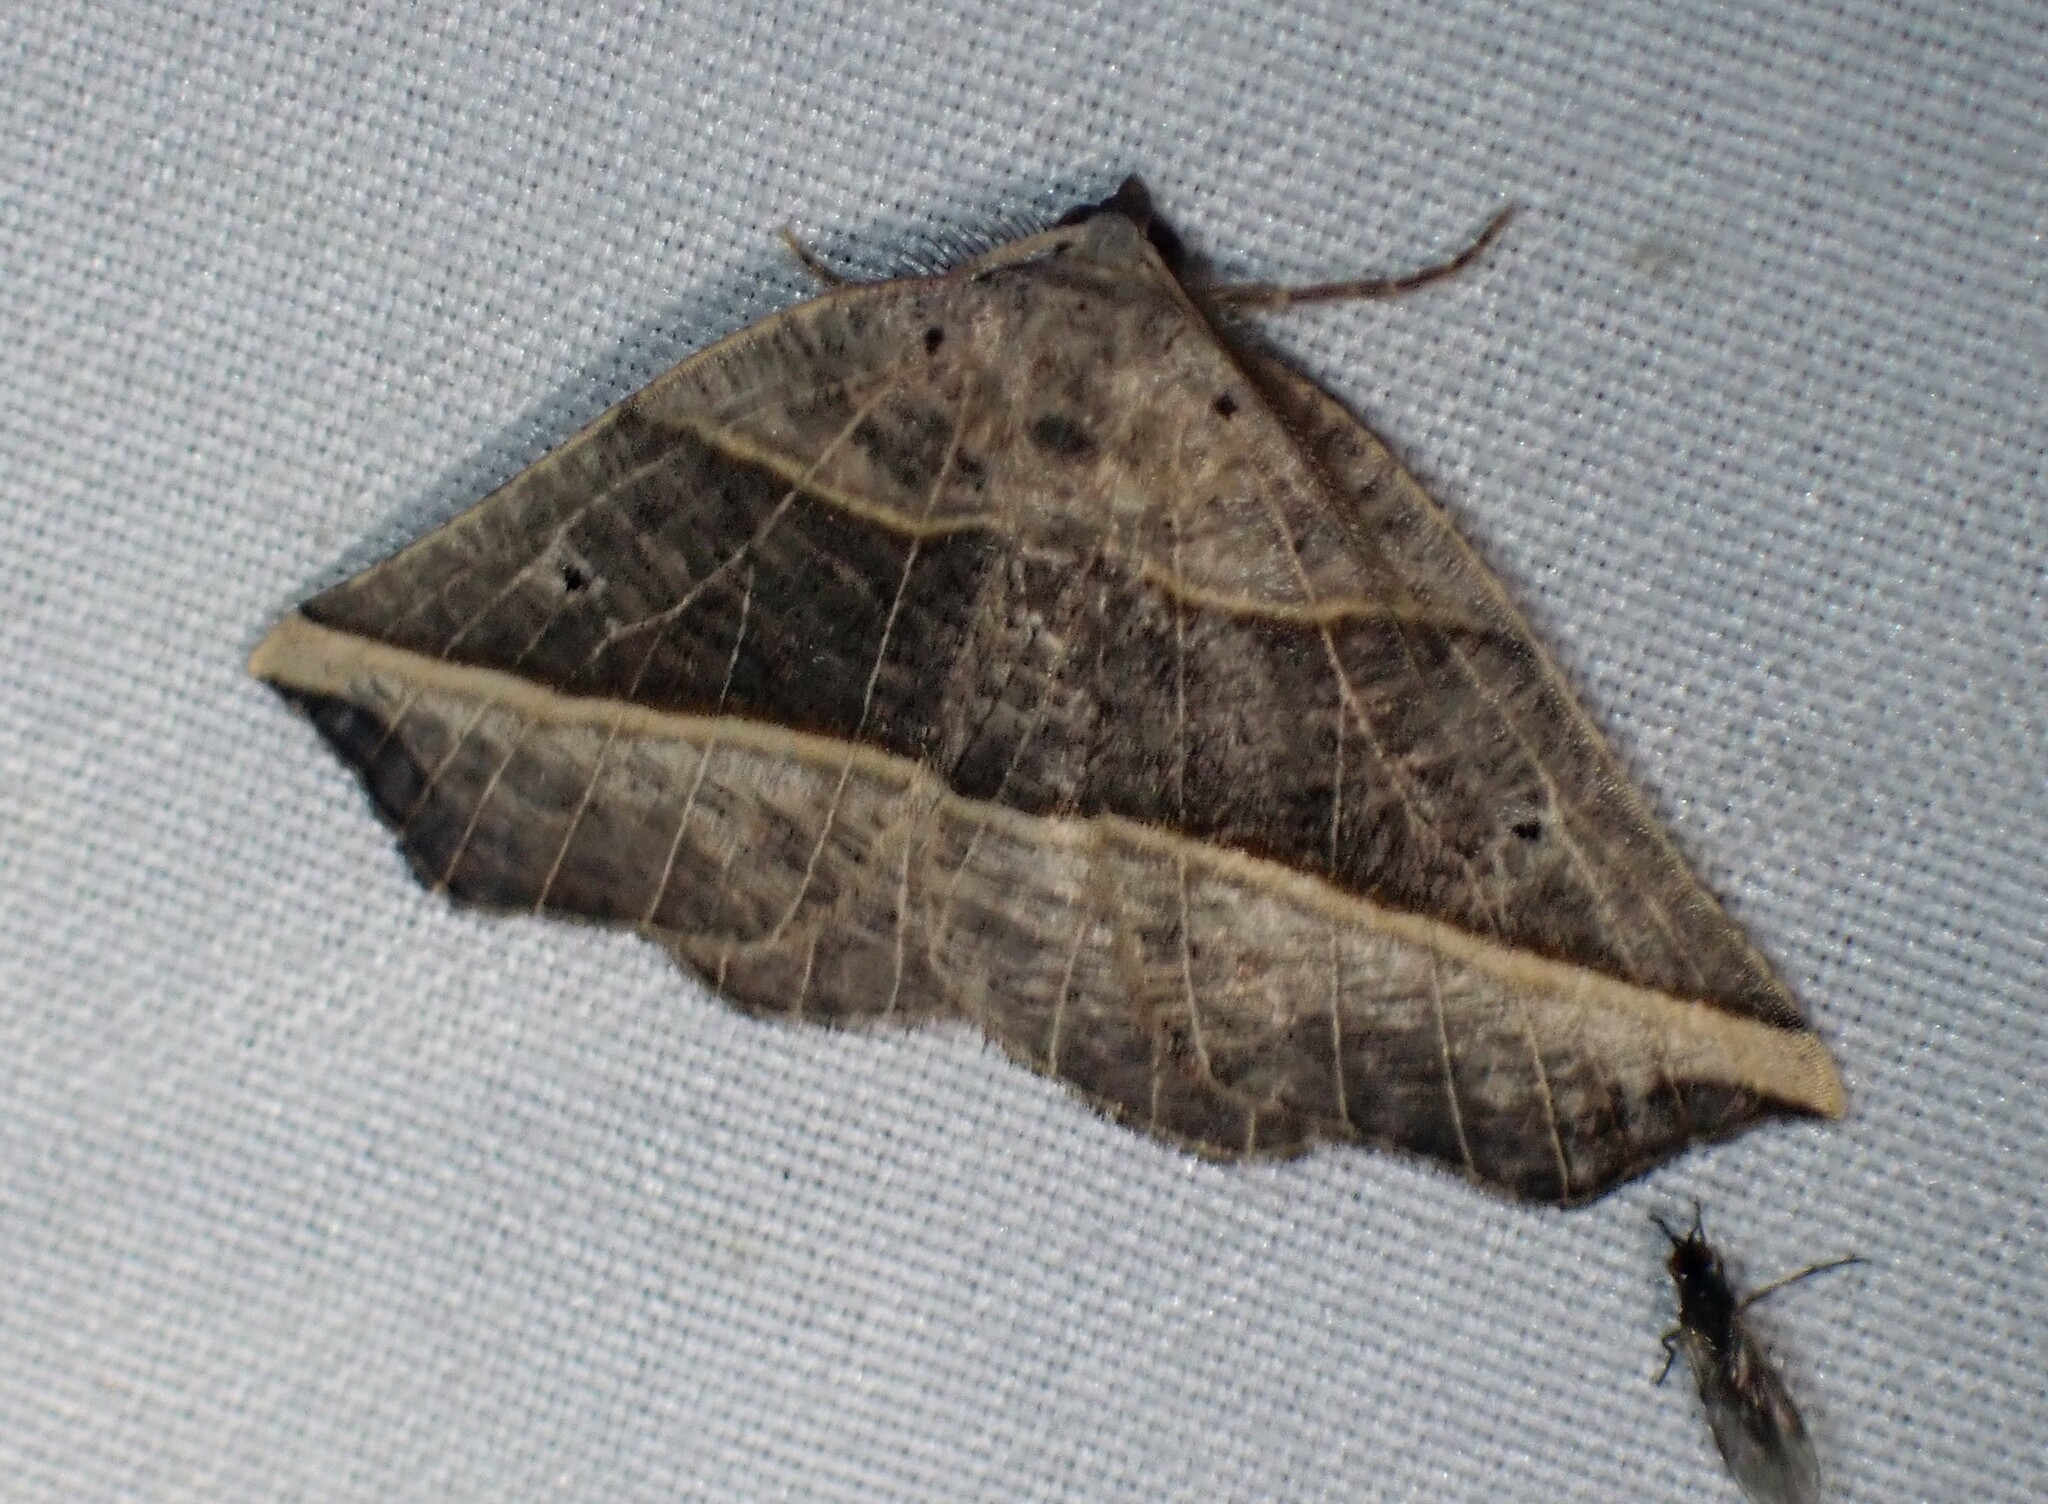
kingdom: Animalia
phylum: Arthropoda
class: Insecta
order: Lepidoptera
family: Geometridae
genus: Metanema
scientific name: Metanema determinata
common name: Dark metanema
